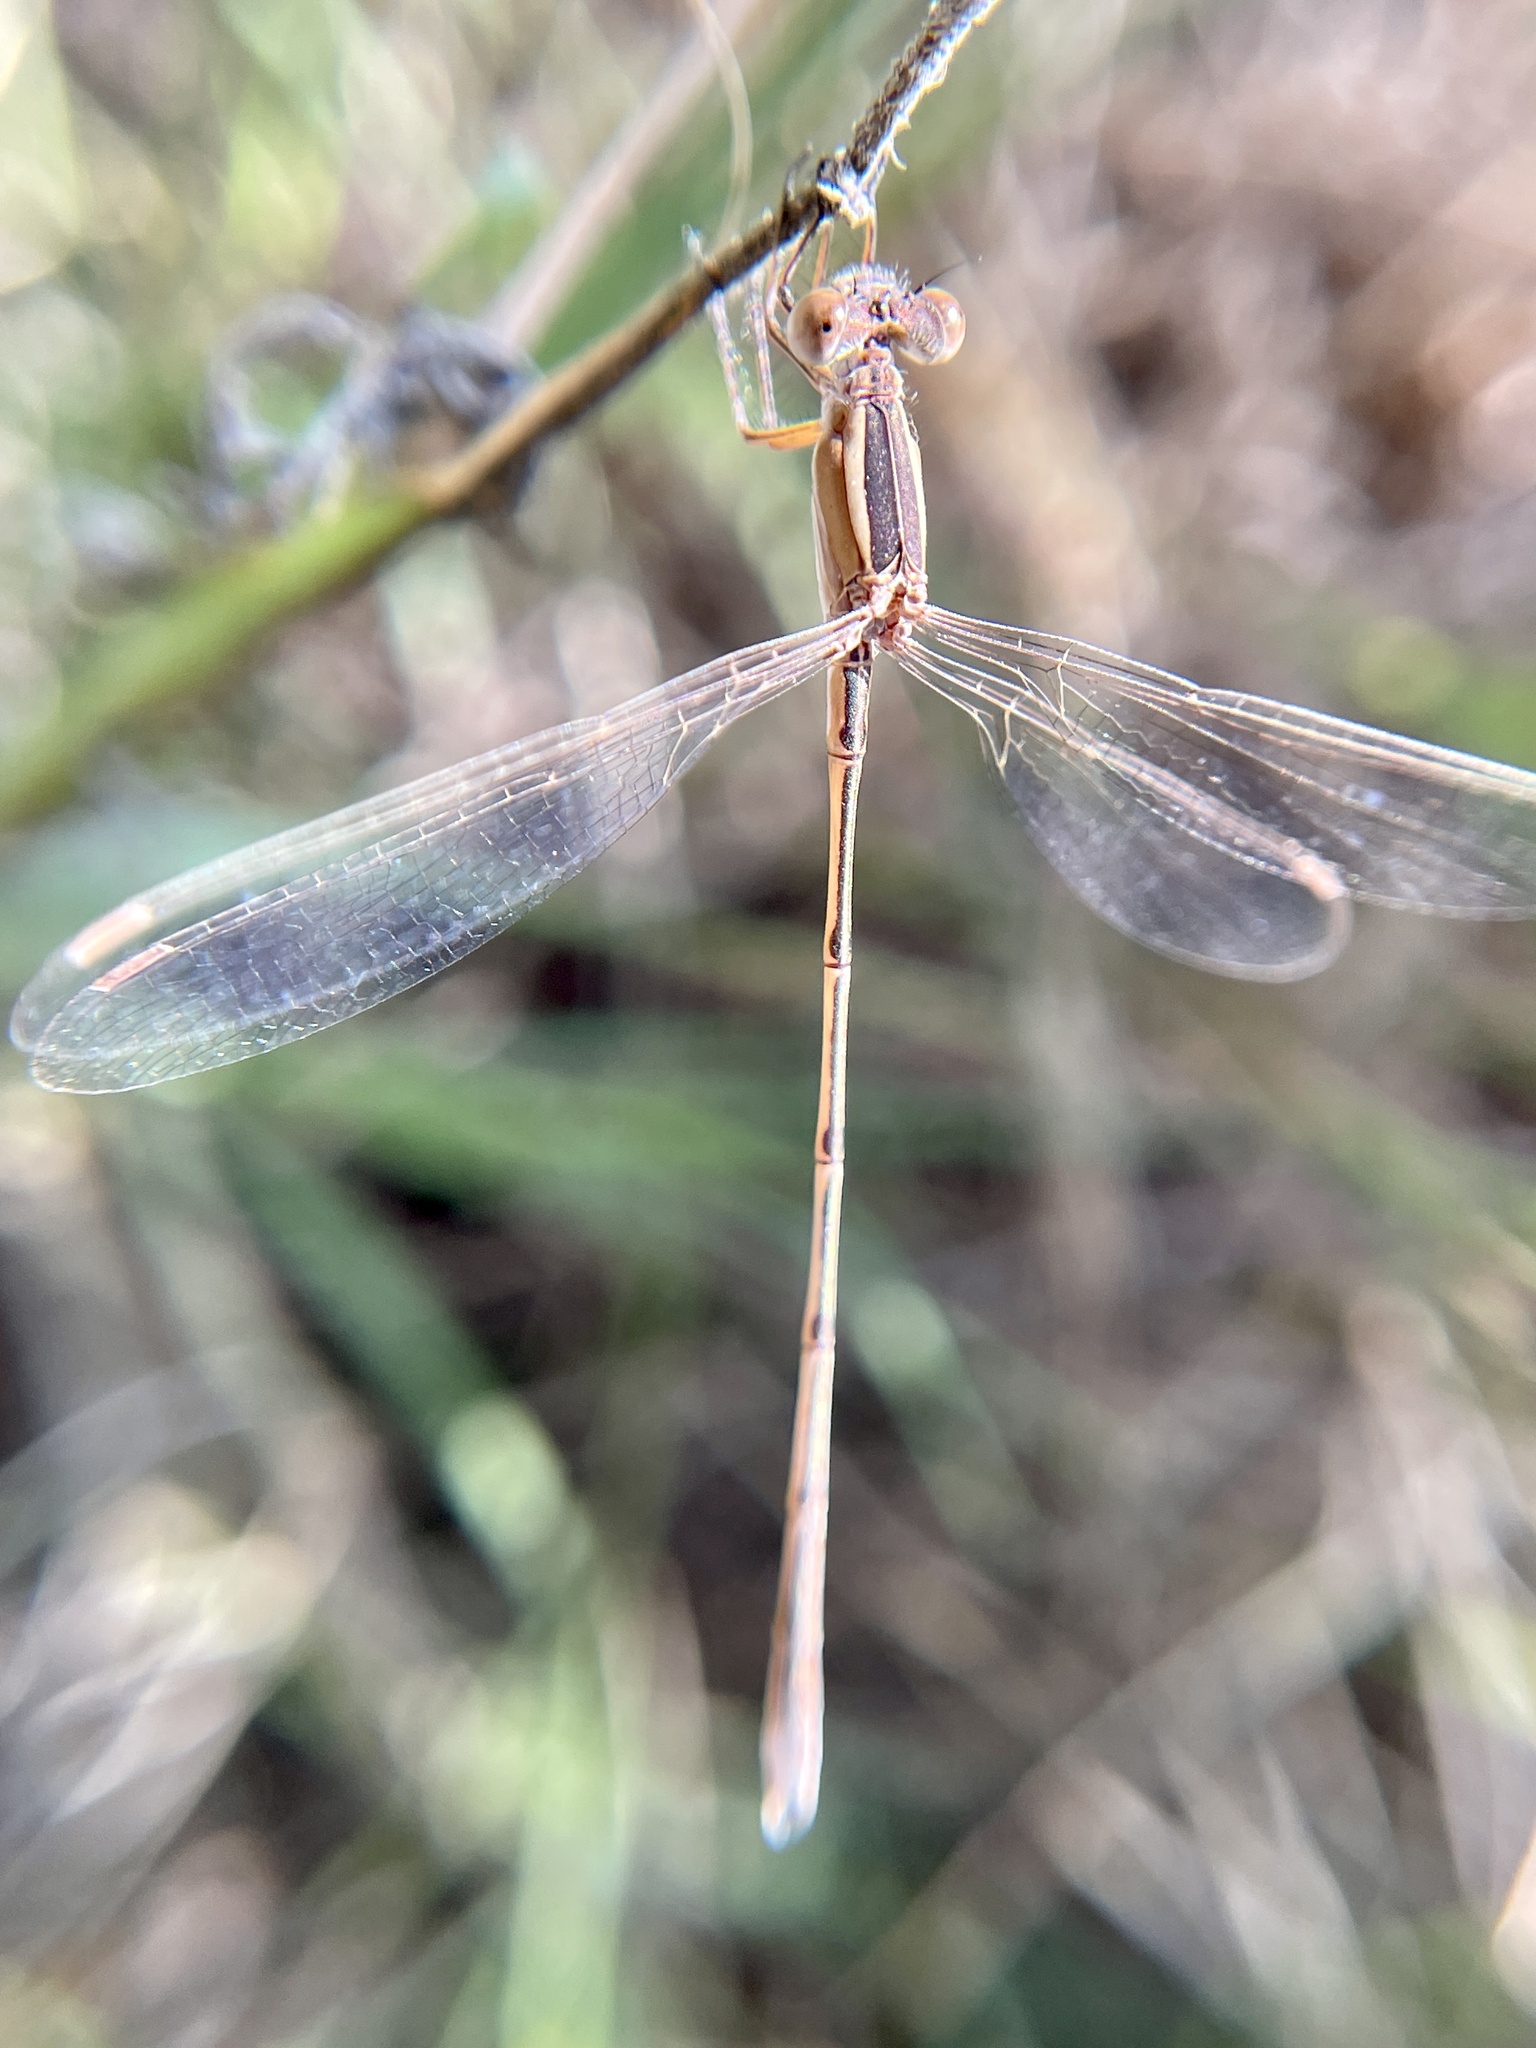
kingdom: Animalia
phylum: Arthropoda
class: Insecta
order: Odonata
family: Lestidae
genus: Lestes
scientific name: Lestes alacer
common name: Plateau spreadwing
